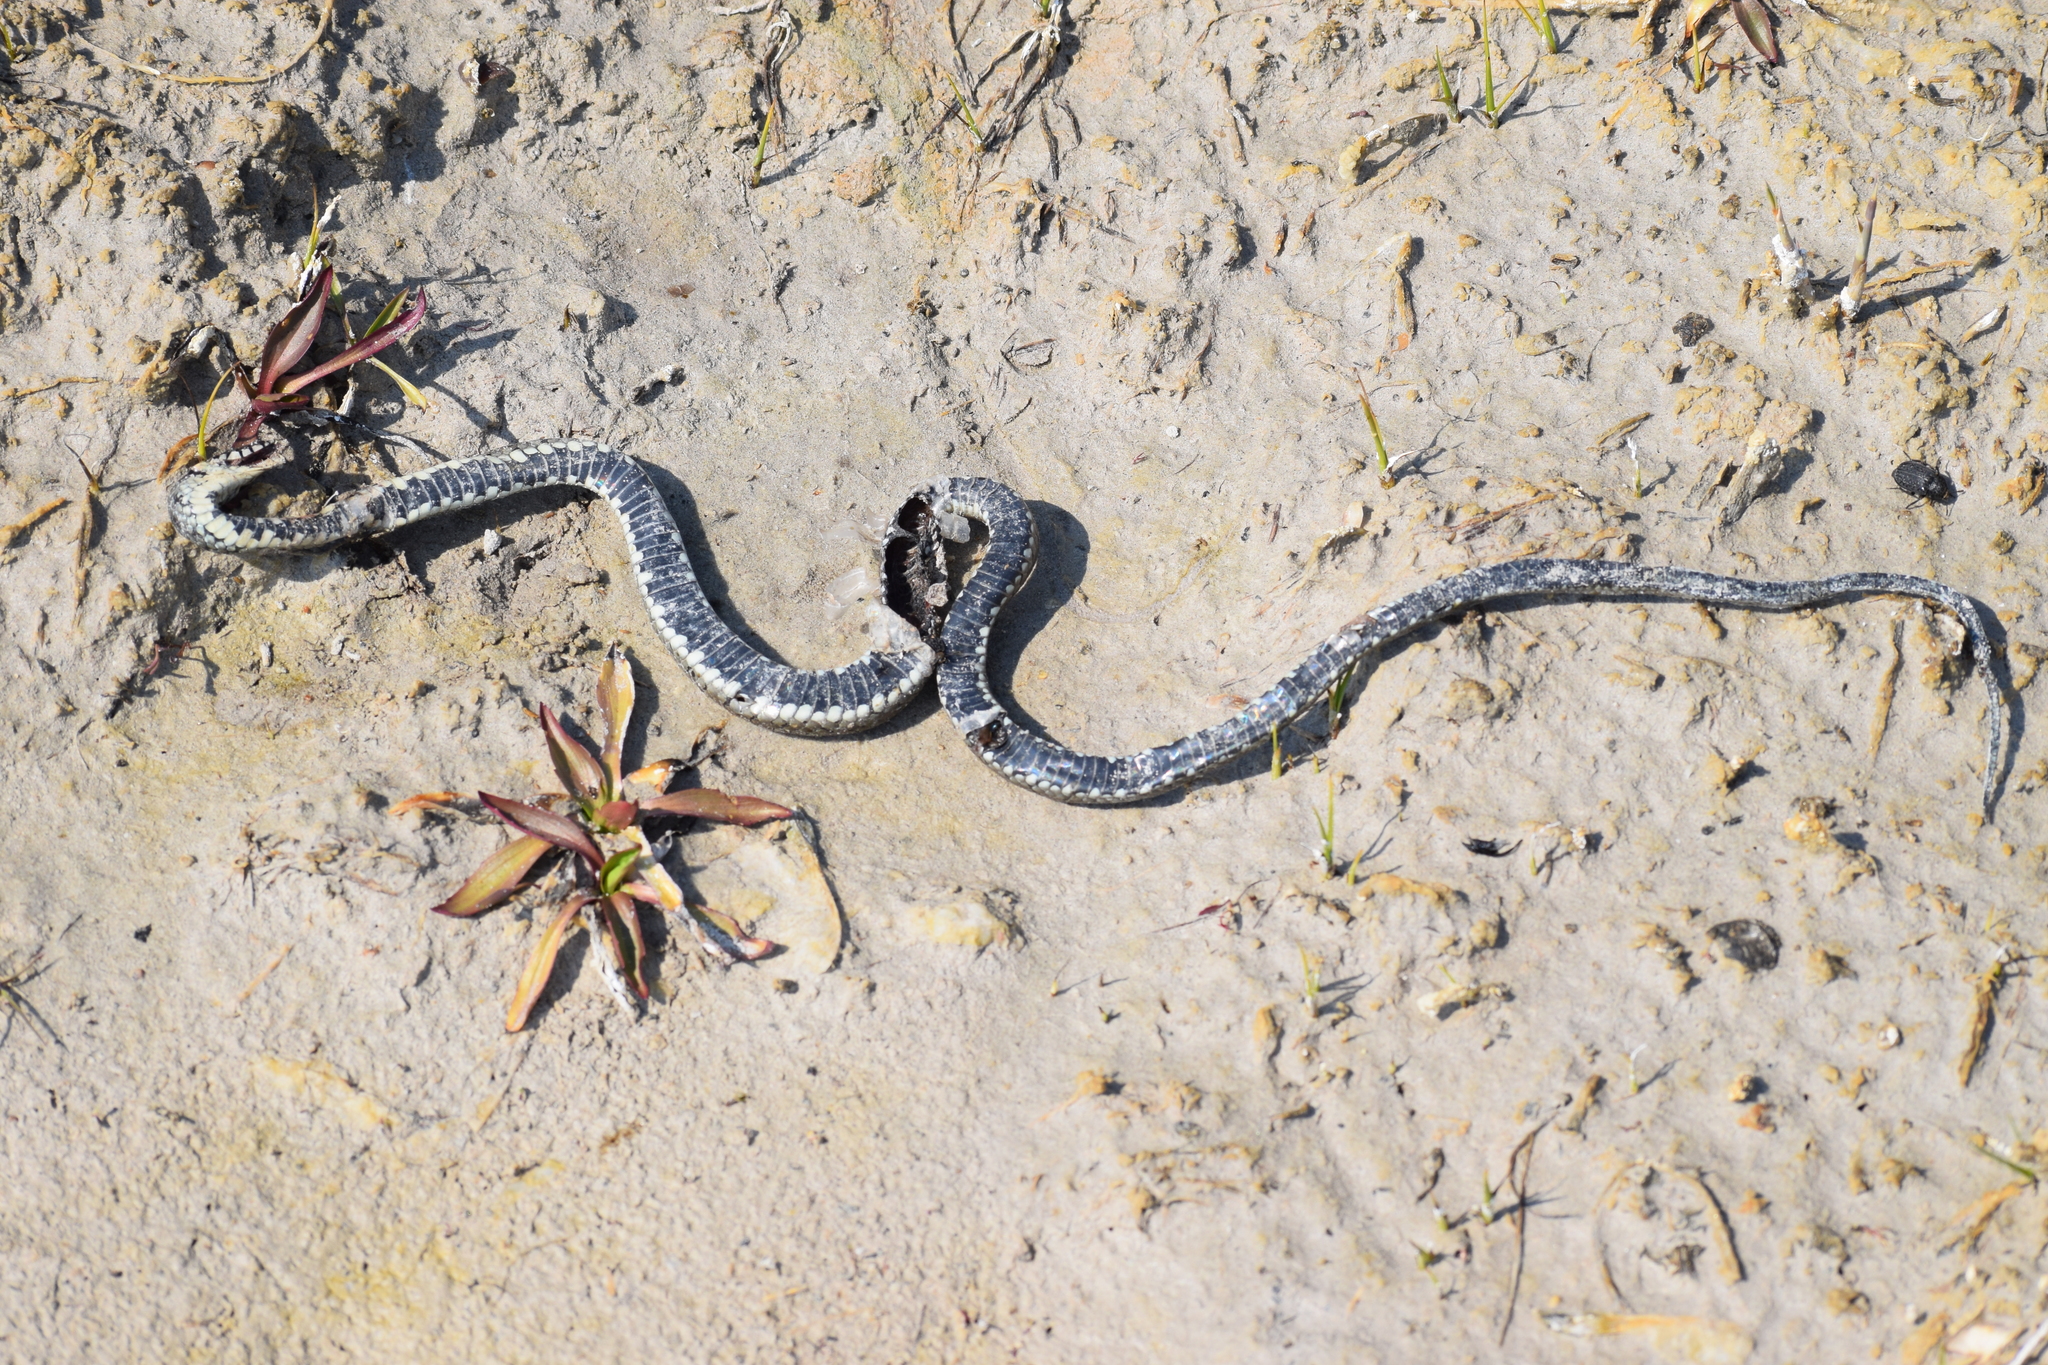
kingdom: Animalia
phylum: Chordata
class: Squamata
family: Colubridae
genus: Natrix
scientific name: Natrix natrix
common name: Grass snake
